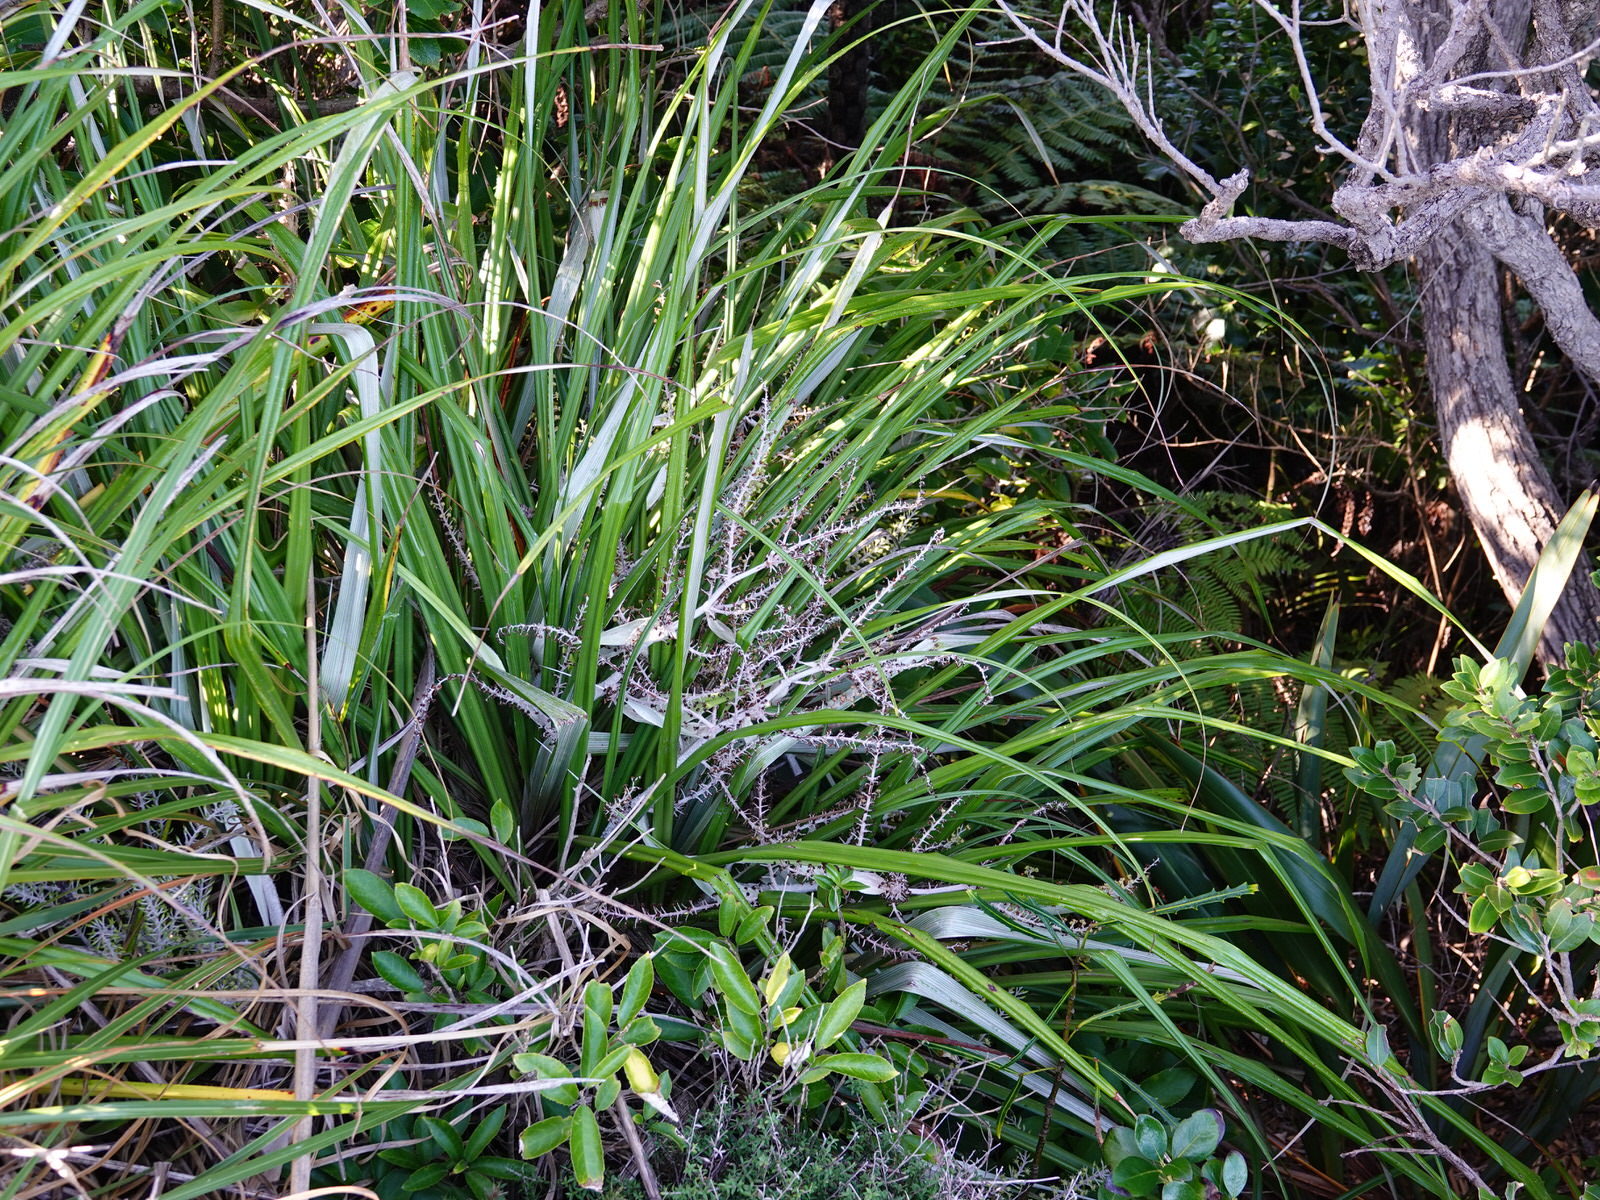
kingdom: Plantae
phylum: Tracheophyta
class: Liliopsida
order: Asparagales
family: Asteliaceae
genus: Astelia
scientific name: Astelia banksii
